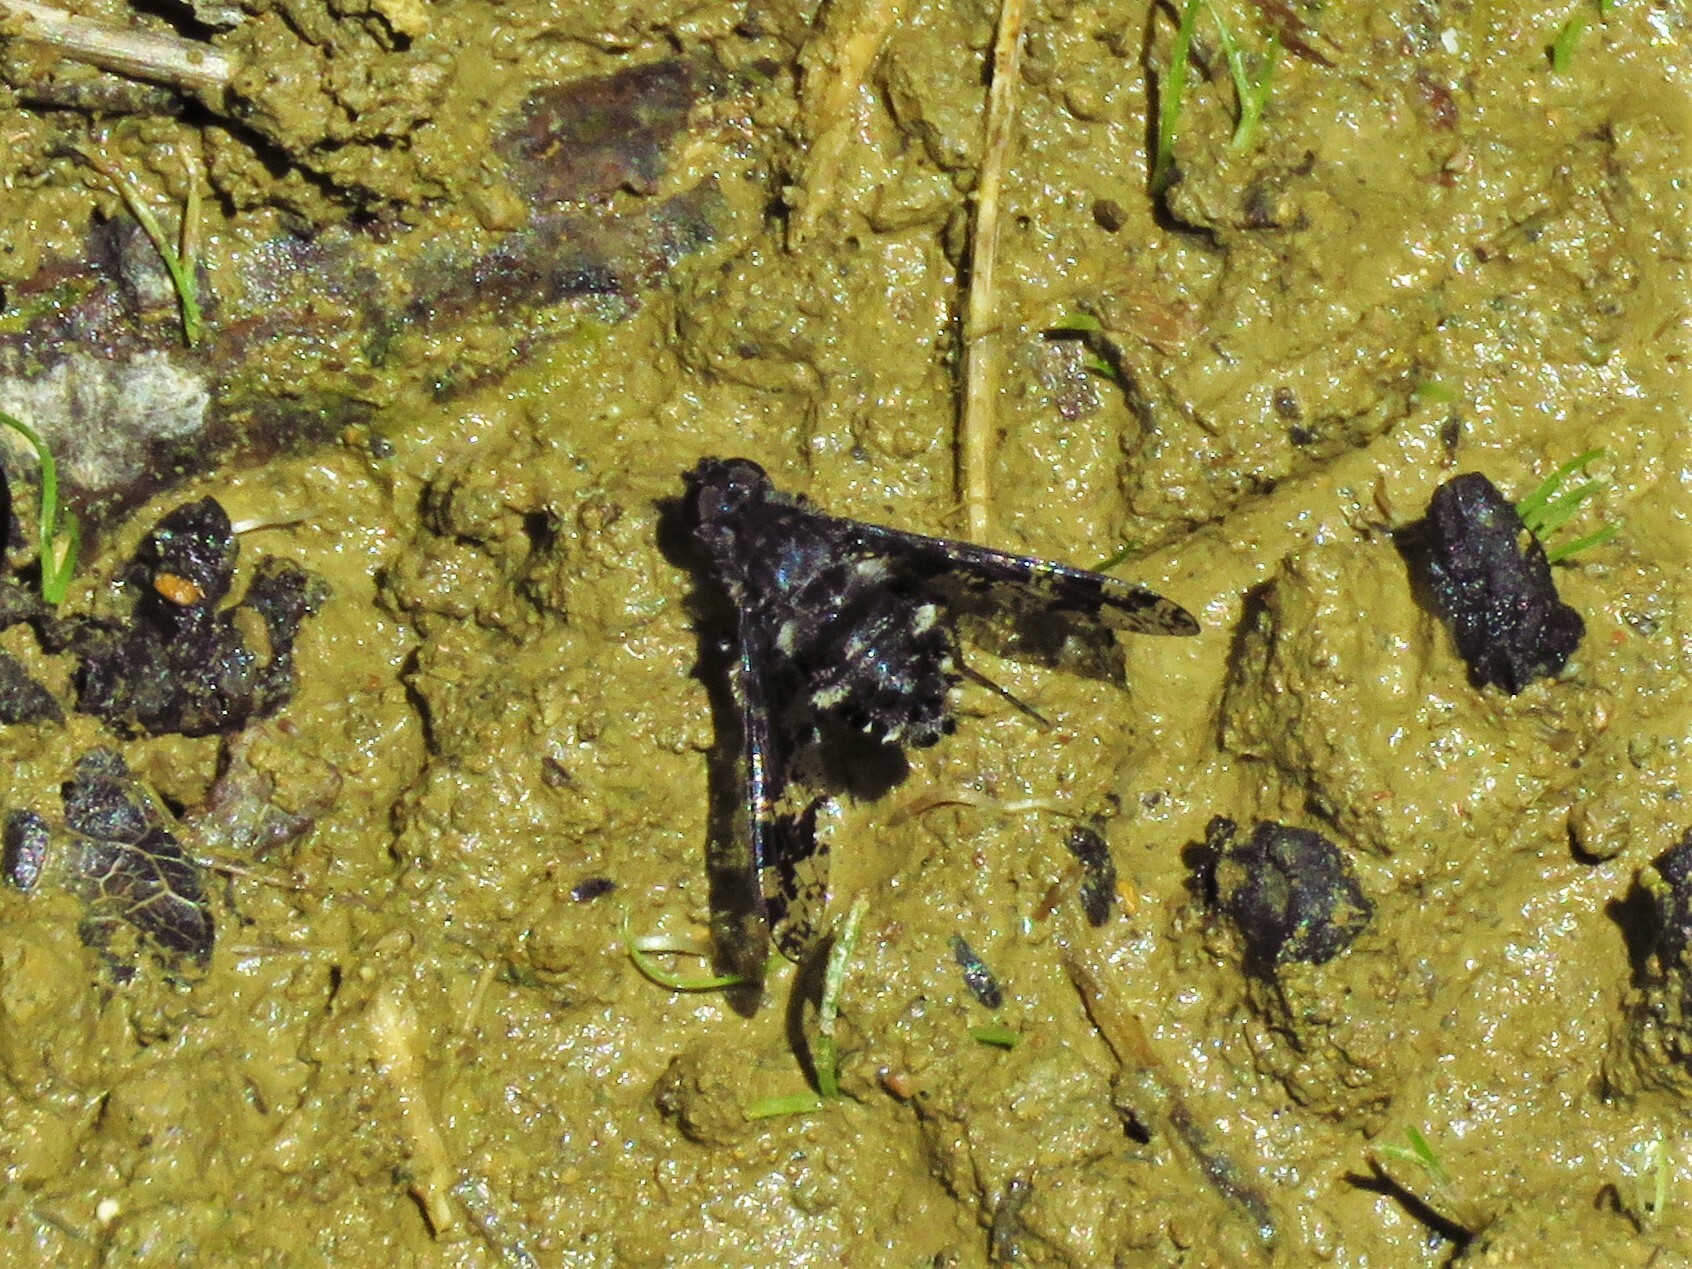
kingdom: Animalia
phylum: Arthropoda
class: Insecta
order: Diptera
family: Bombyliidae
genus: Anthrax
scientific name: Anthrax irroratus
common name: Spotted bee fly
